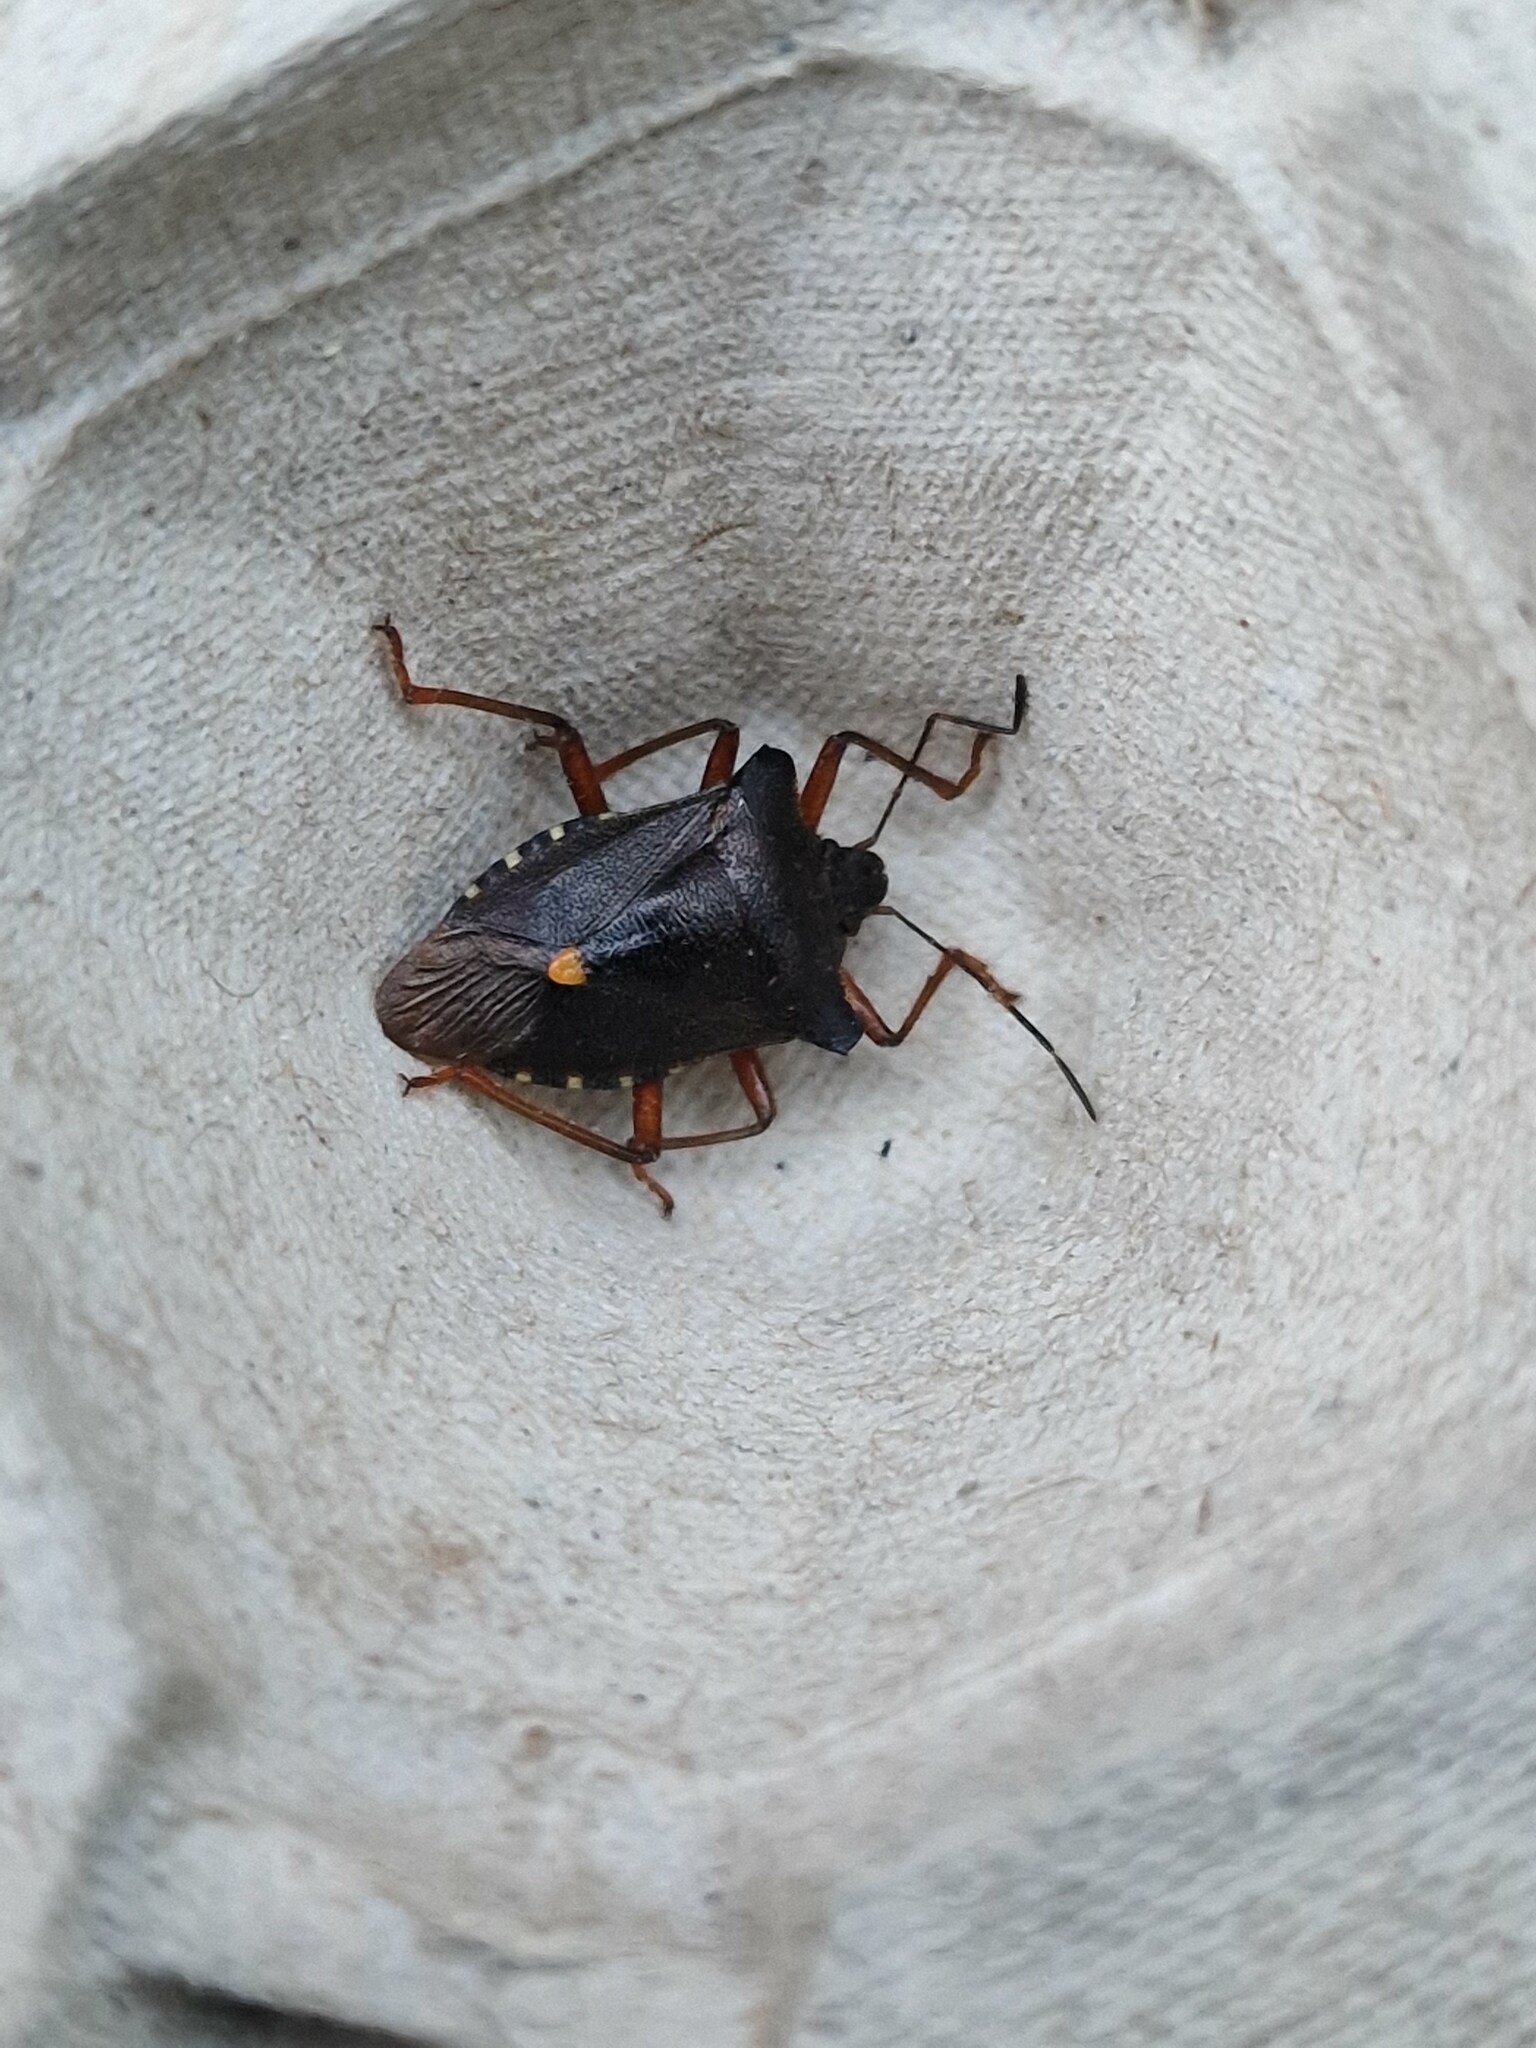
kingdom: Animalia
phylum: Arthropoda
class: Insecta
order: Hemiptera
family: Pentatomidae
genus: Pentatoma
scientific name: Pentatoma rufipes
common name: Forest bug
